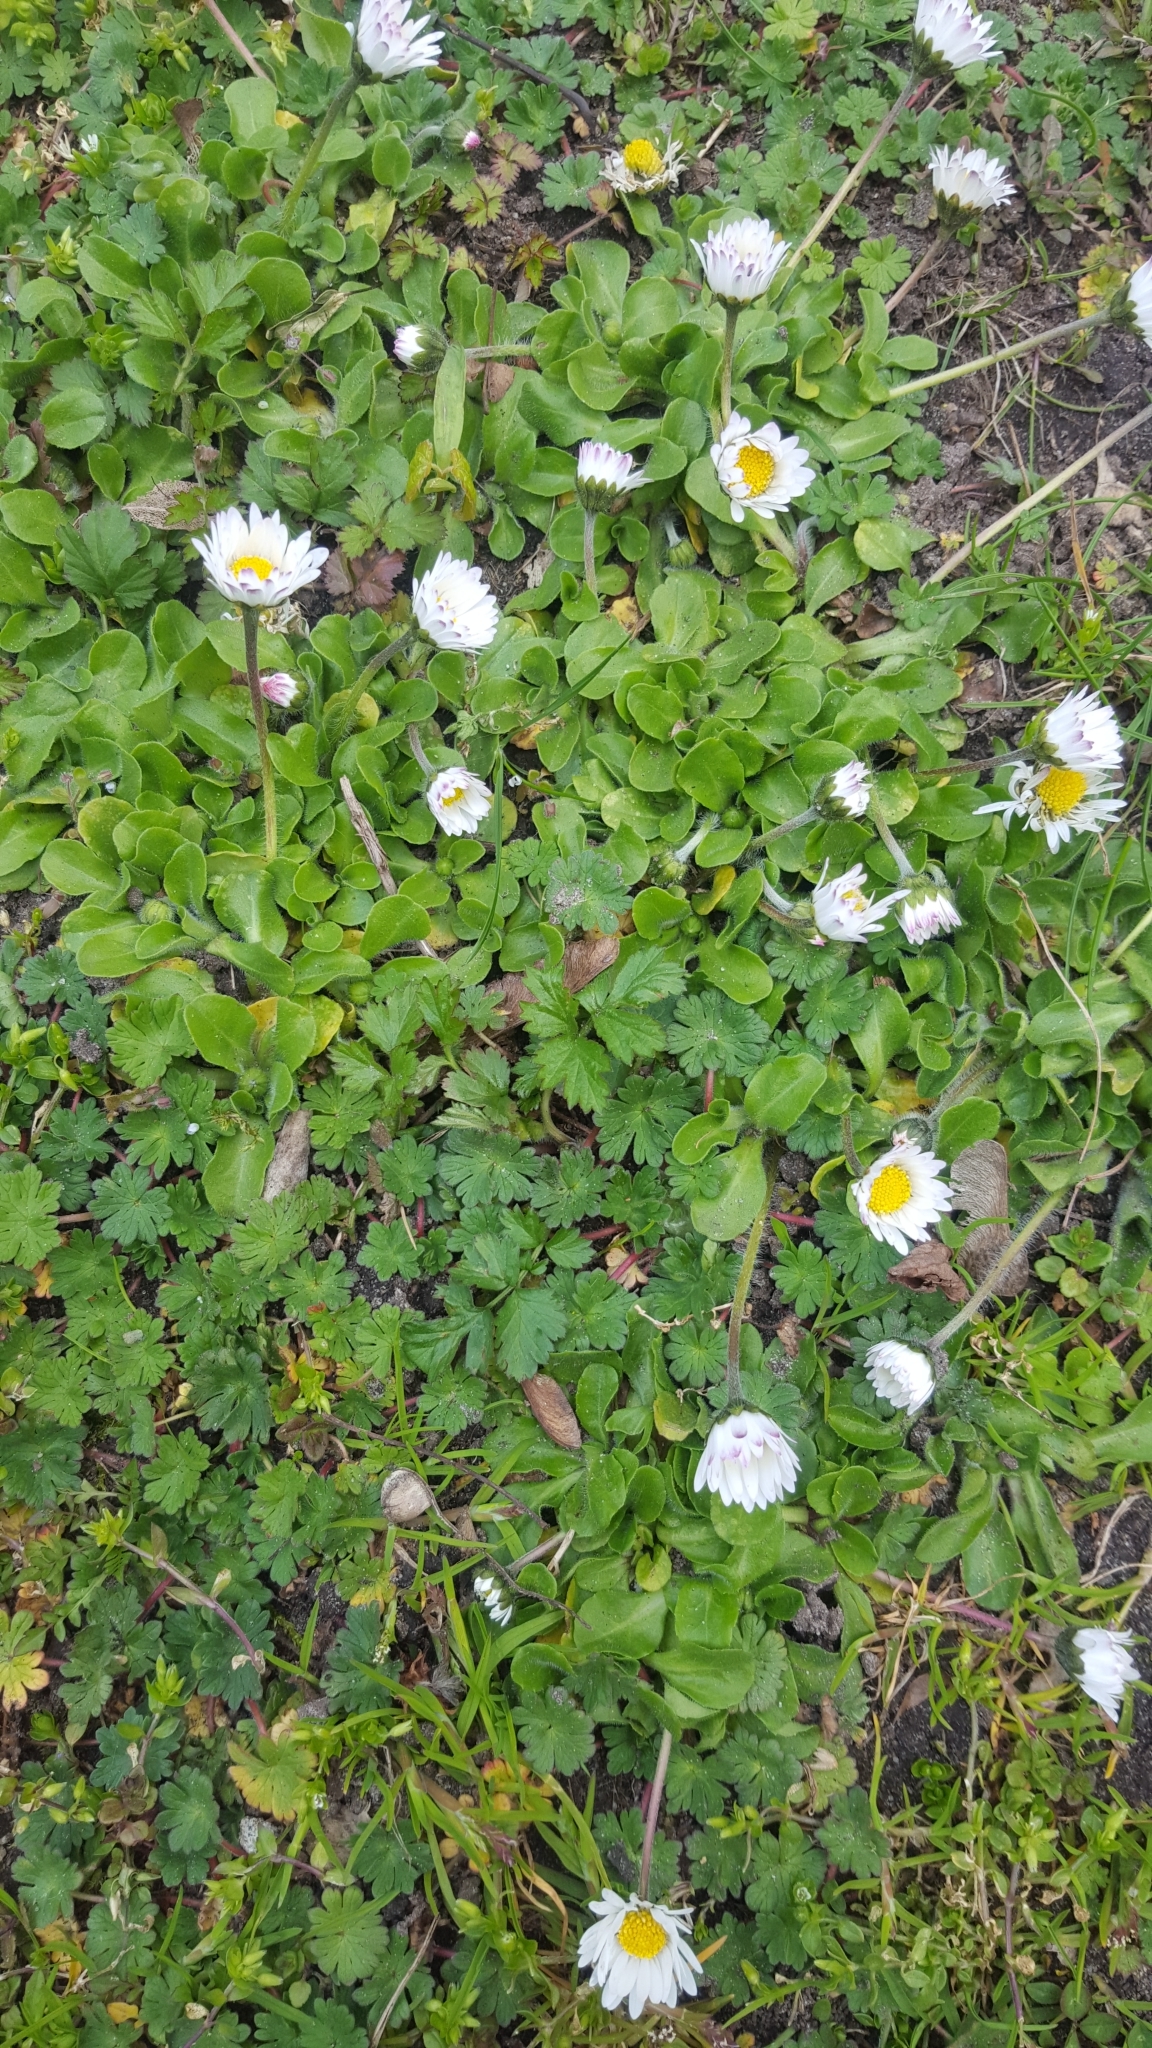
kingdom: Plantae
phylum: Tracheophyta
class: Magnoliopsida
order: Asterales
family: Asteraceae
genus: Bellis
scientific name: Bellis perennis
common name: Lawndaisy
